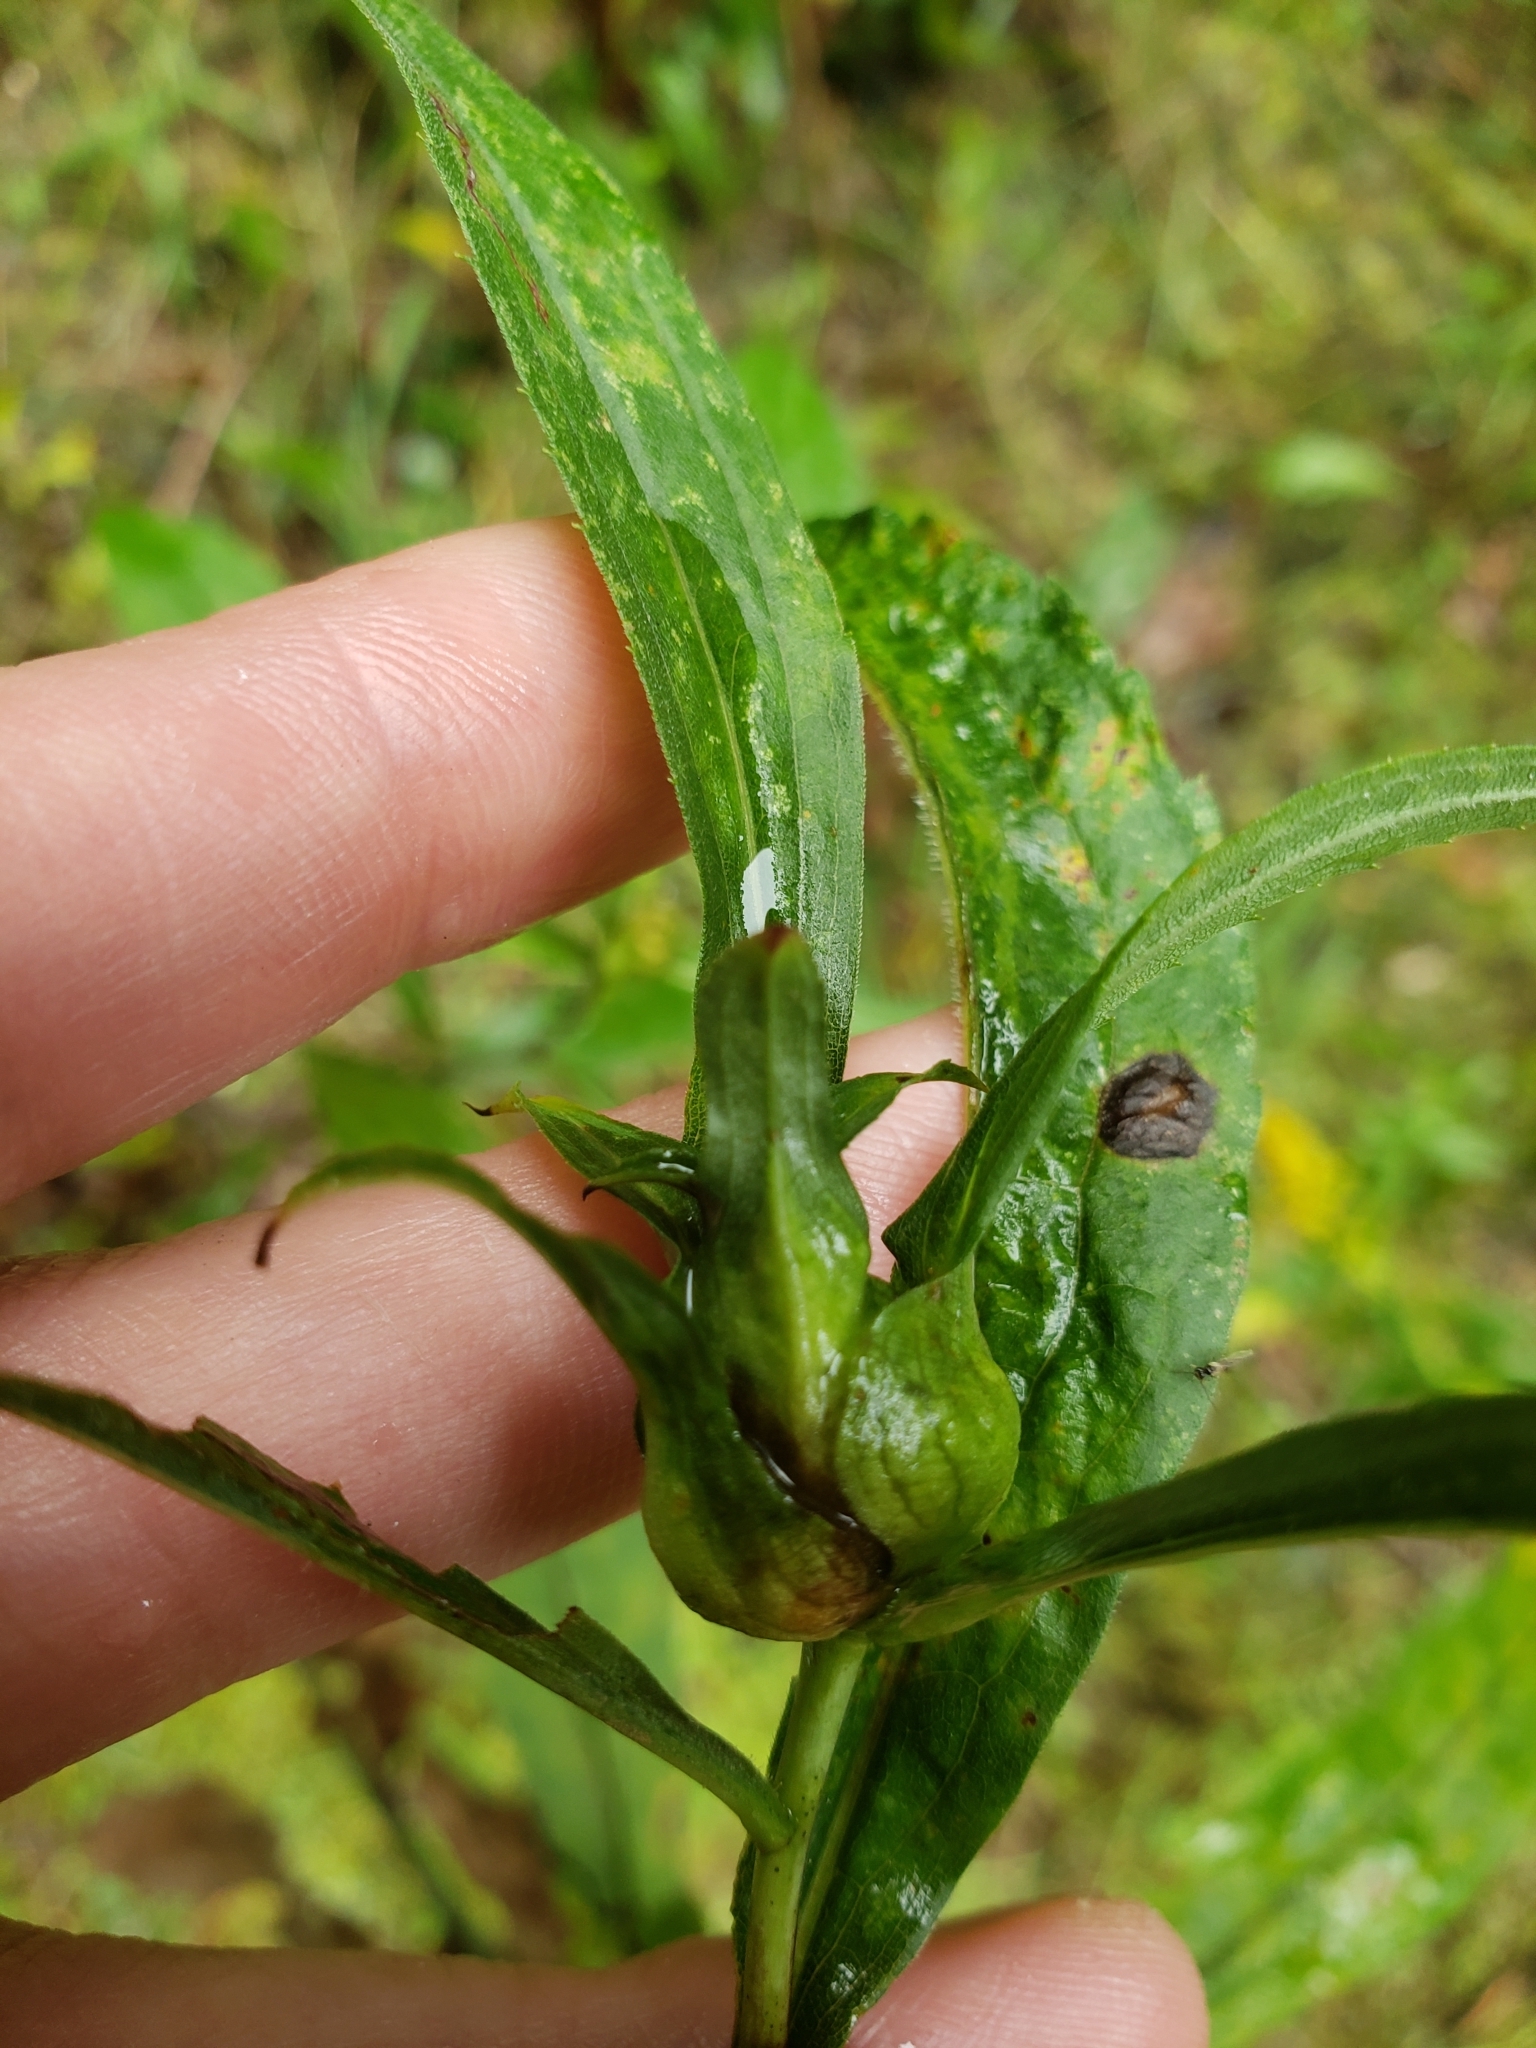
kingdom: Animalia
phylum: Arthropoda
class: Insecta
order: Diptera
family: Cecidomyiidae
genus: Dasineura
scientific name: Dasineura folliculi
